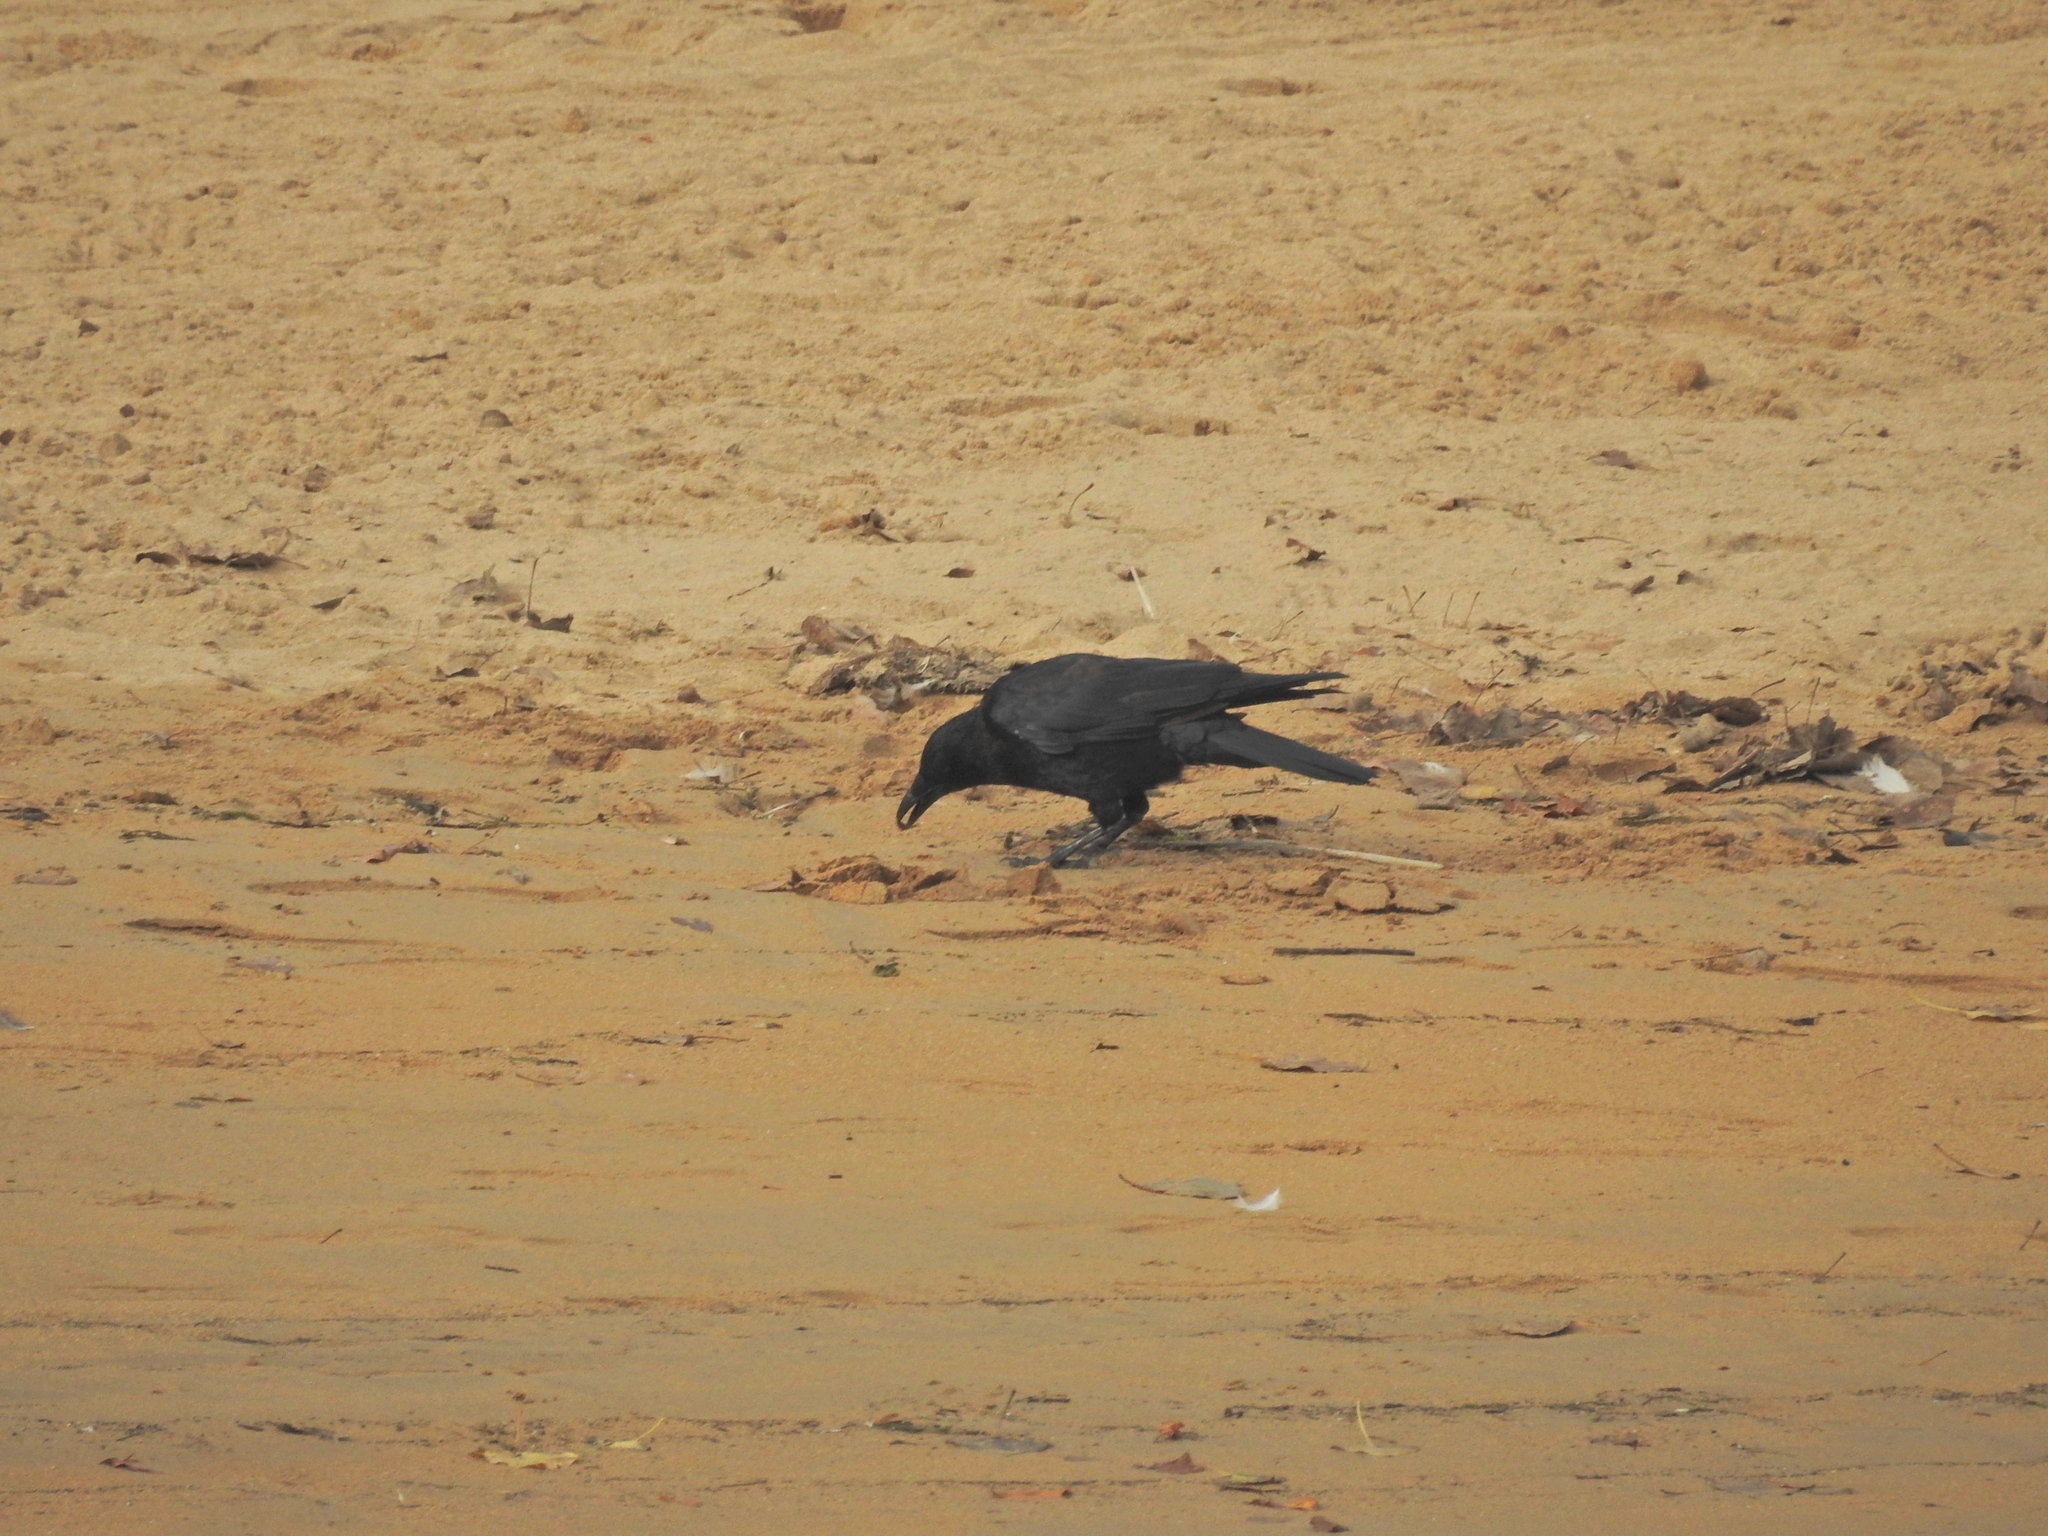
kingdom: Animalia
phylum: Chordata
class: Aves
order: Passeriformes
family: Corvidae
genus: Corvus
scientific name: Corvus corone
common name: Carrion crow
